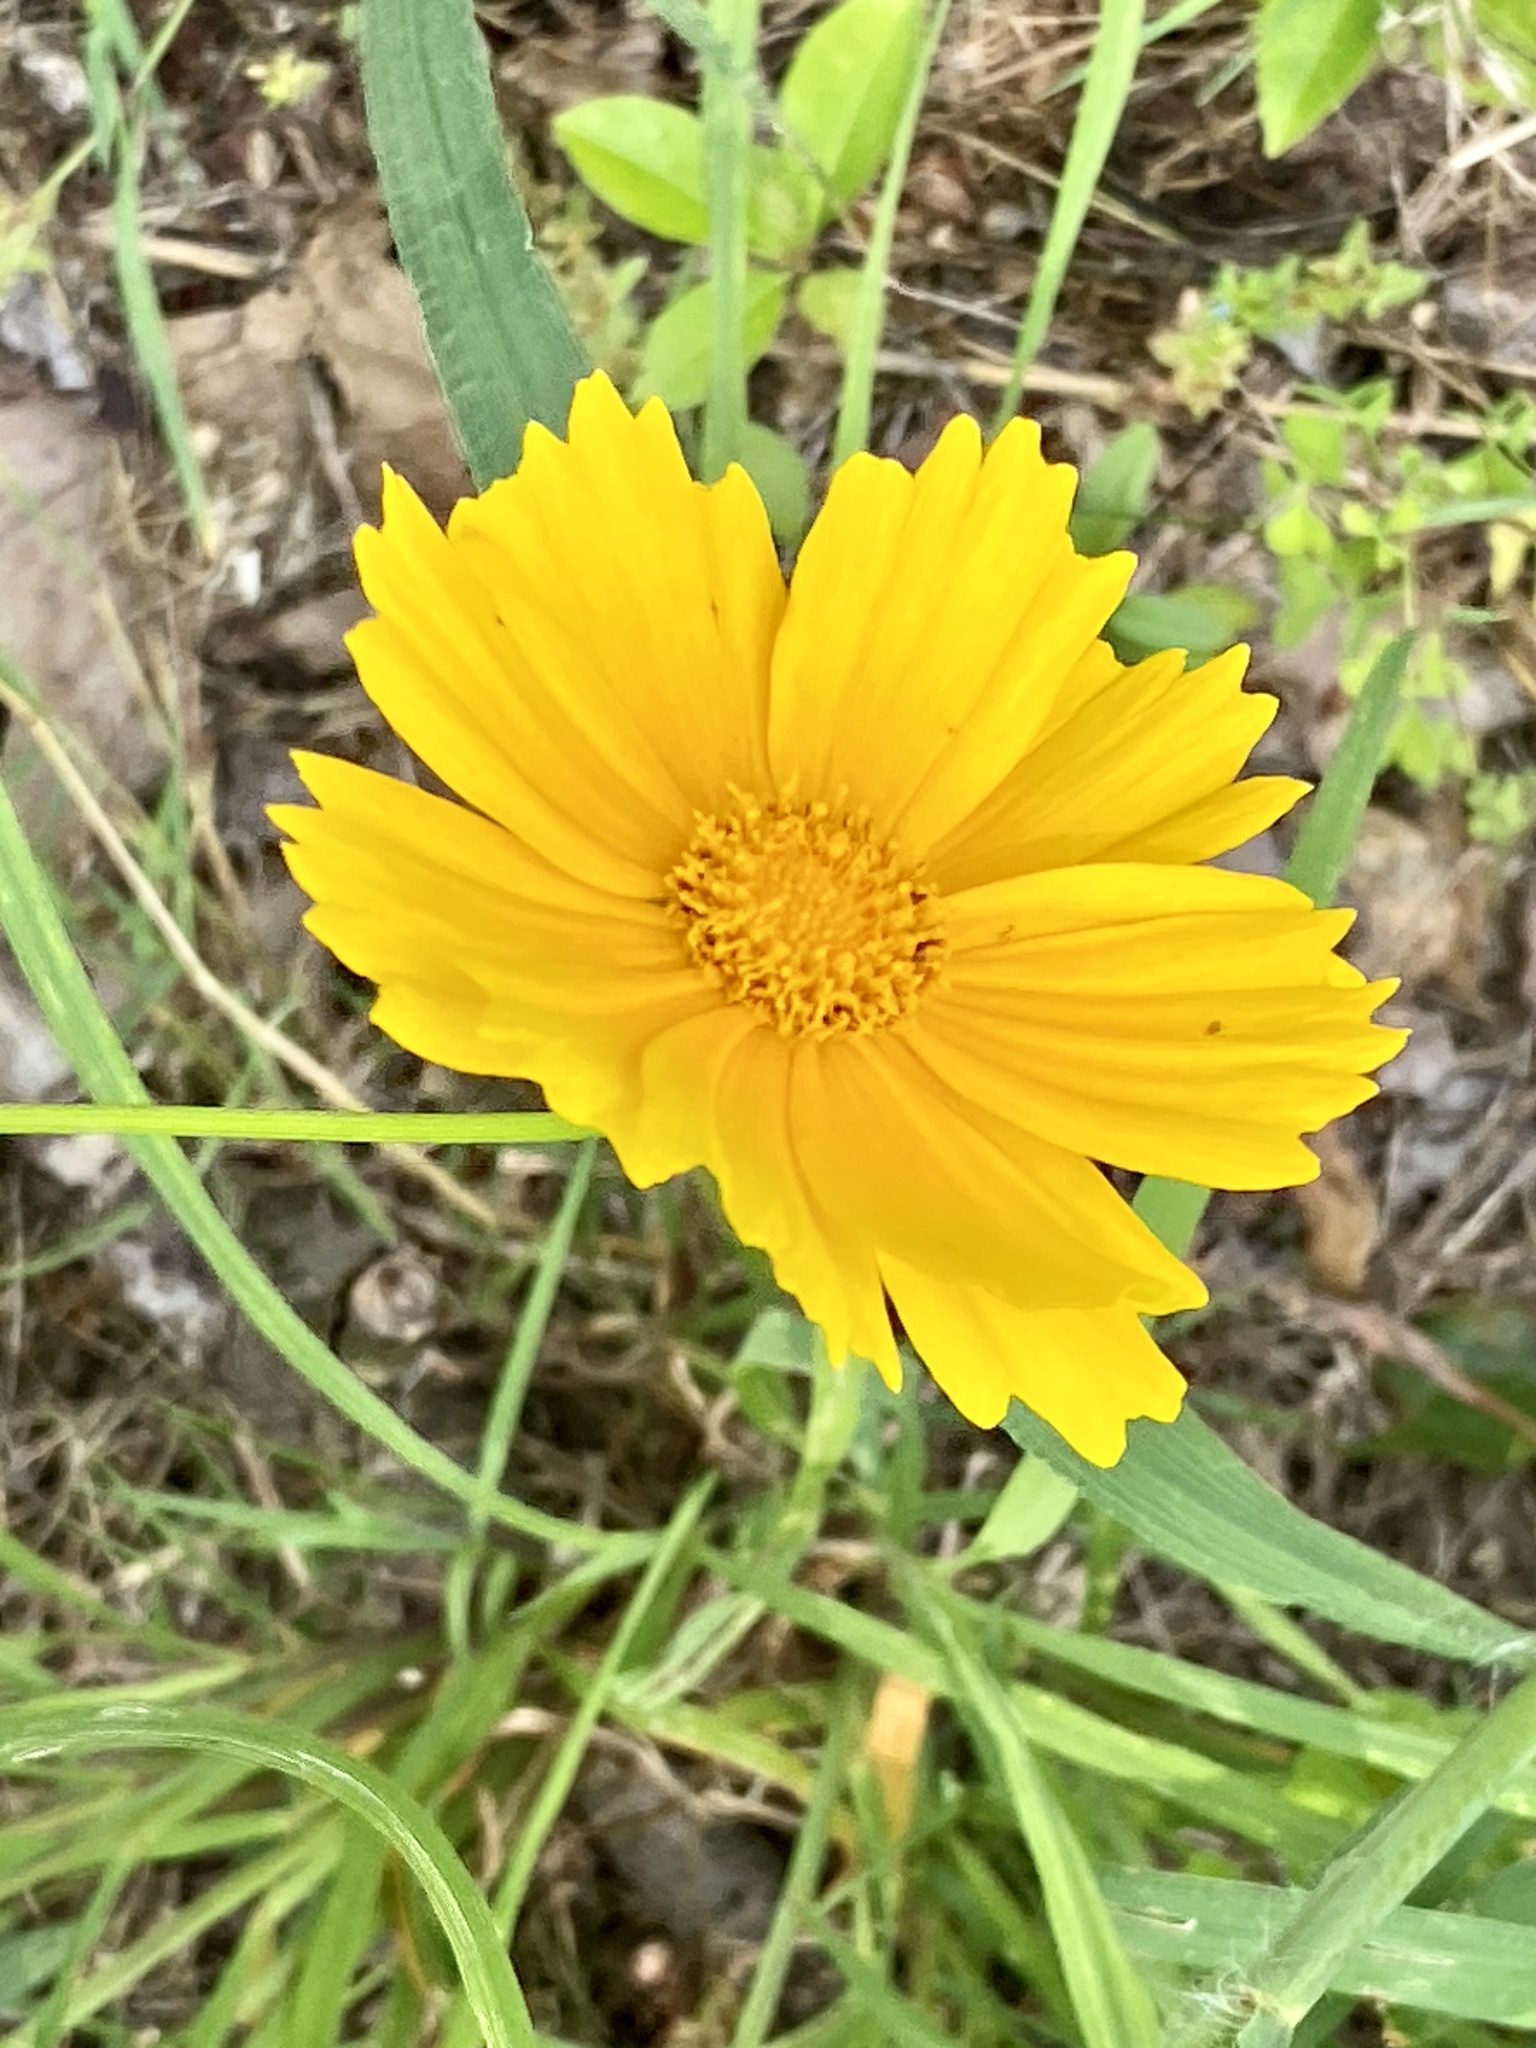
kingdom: Plantae
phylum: Tracheophyta
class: Magnoliopsida
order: Asterales
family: Asteraceae
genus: Coreopsis
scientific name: Coreopsis lanceolata
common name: Garden coreopsis
